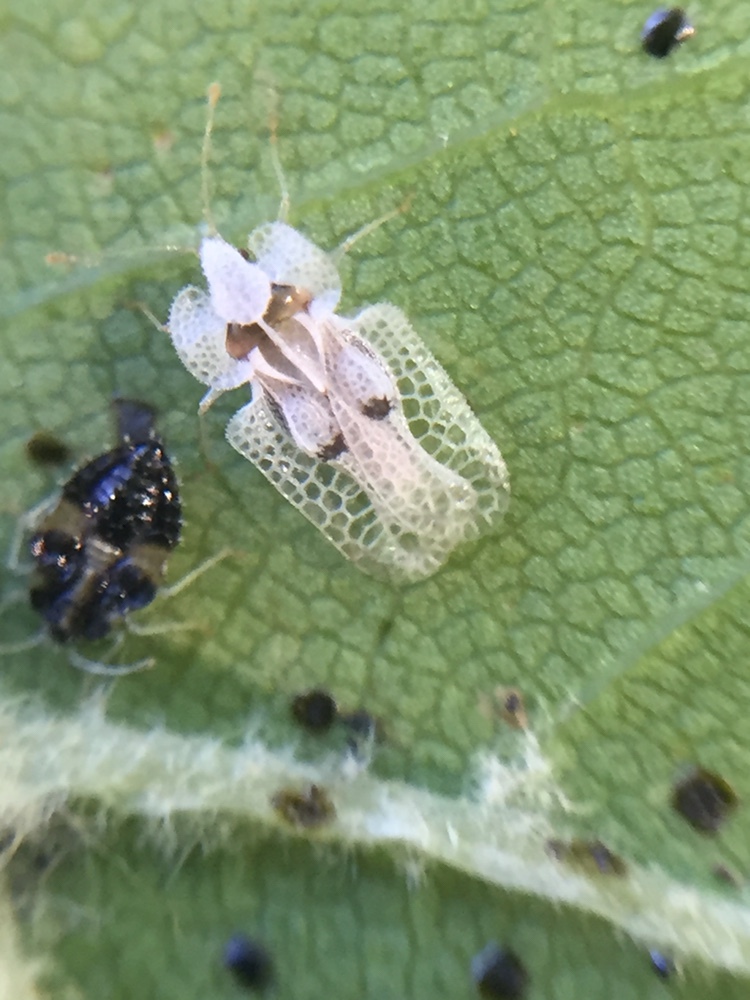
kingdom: Animalia
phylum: Arthropoda
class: Insecta
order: Hemiptera
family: Tingidae
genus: Corythucha
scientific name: Corythucha ciliata
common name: Sycamore lace bug
